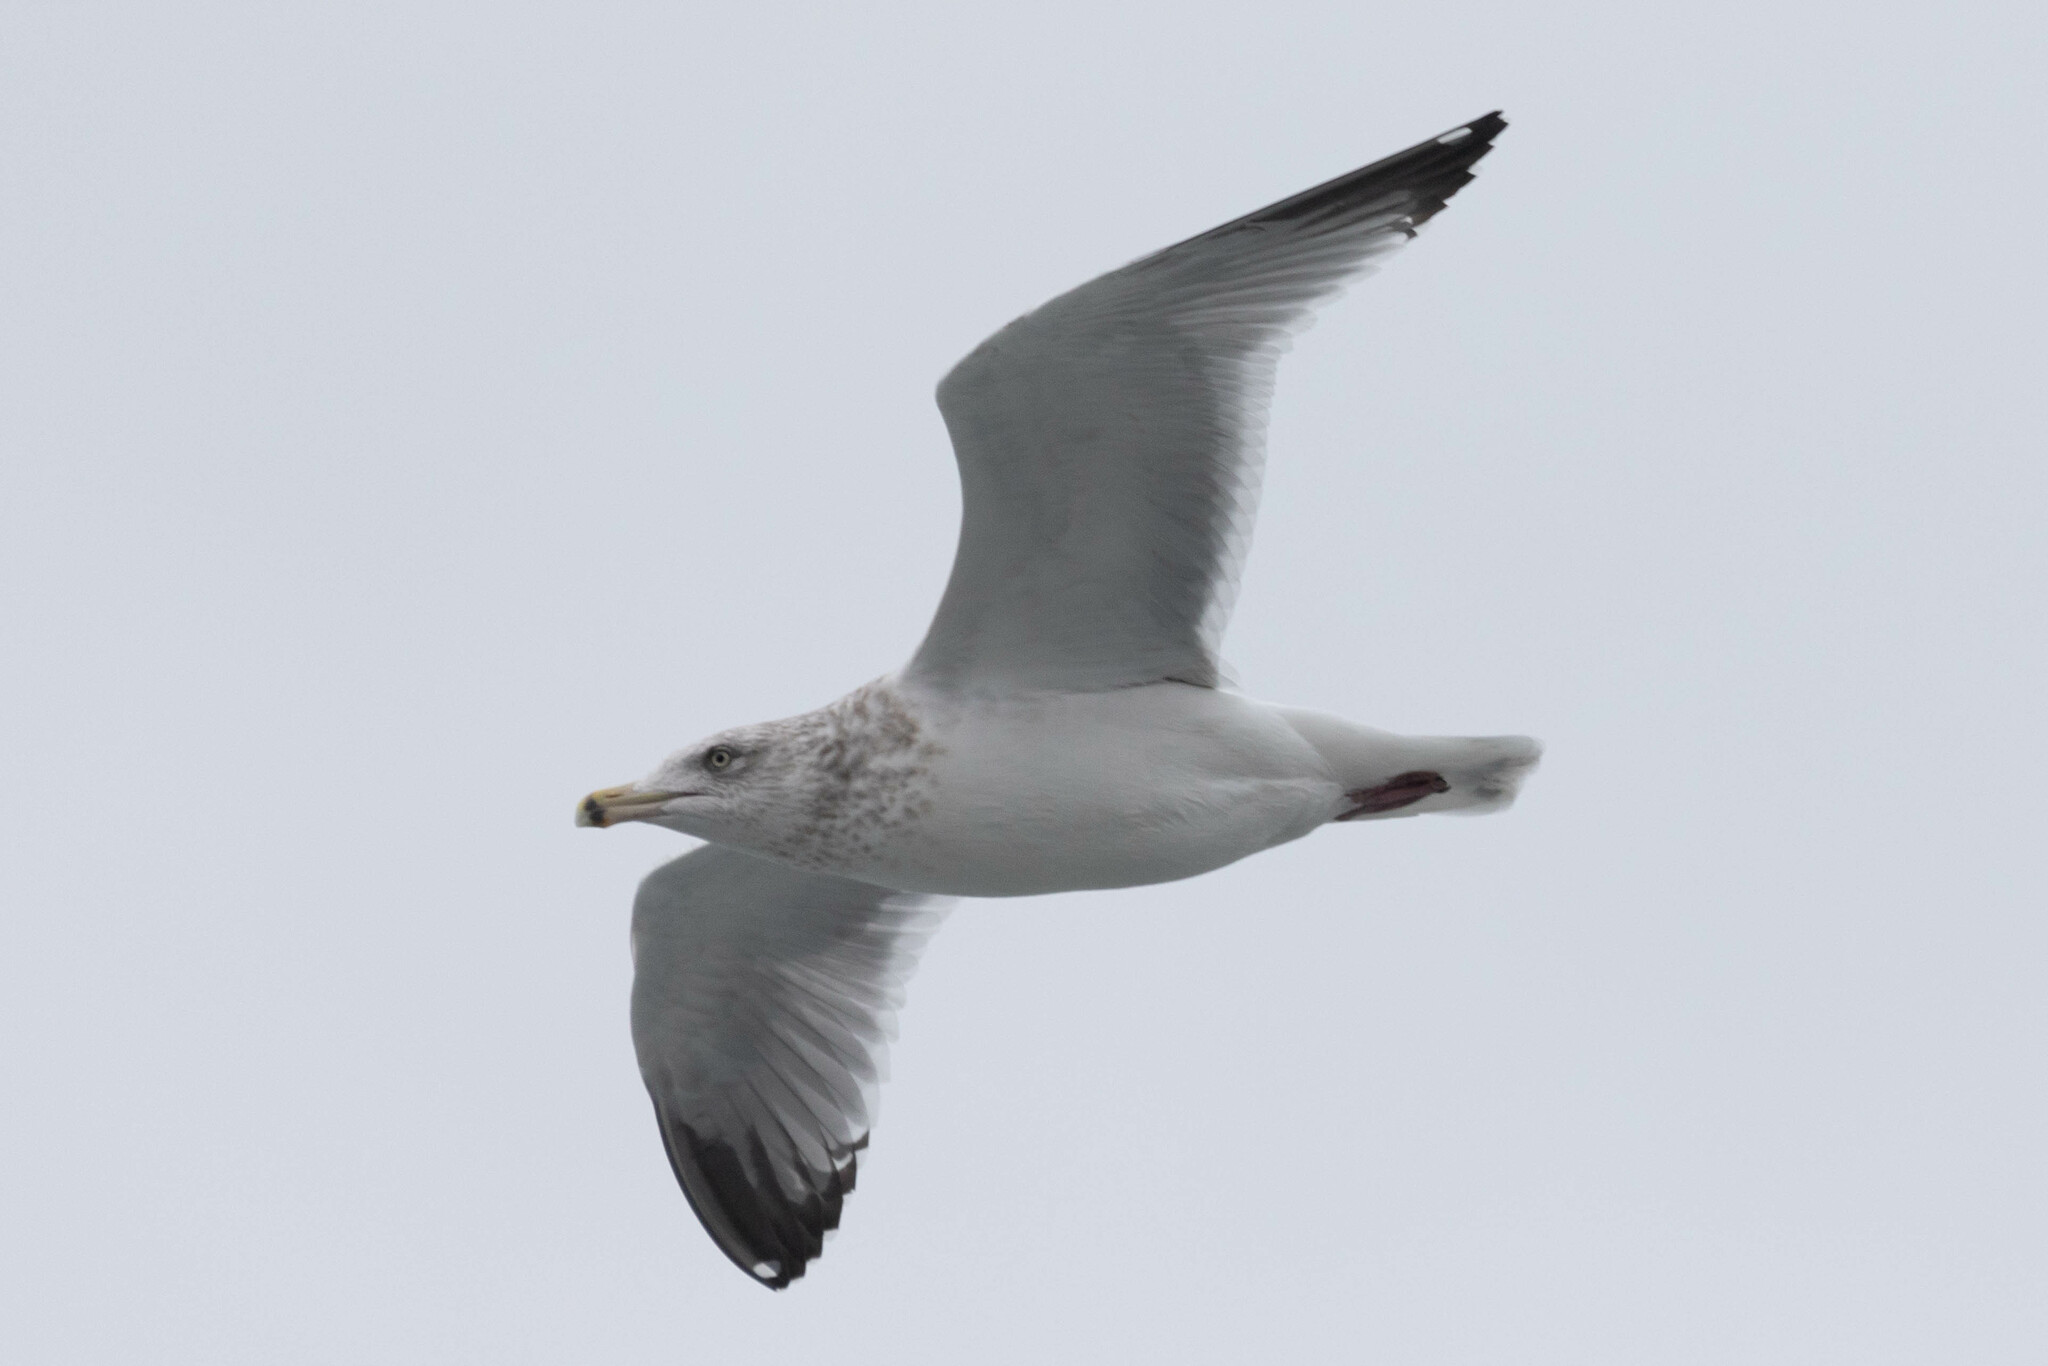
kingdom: Animalia
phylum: Chordata
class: Aves
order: Charadriiformes
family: Laridae
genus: Larus
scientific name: Larus smithsonianus
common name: American herring gull
